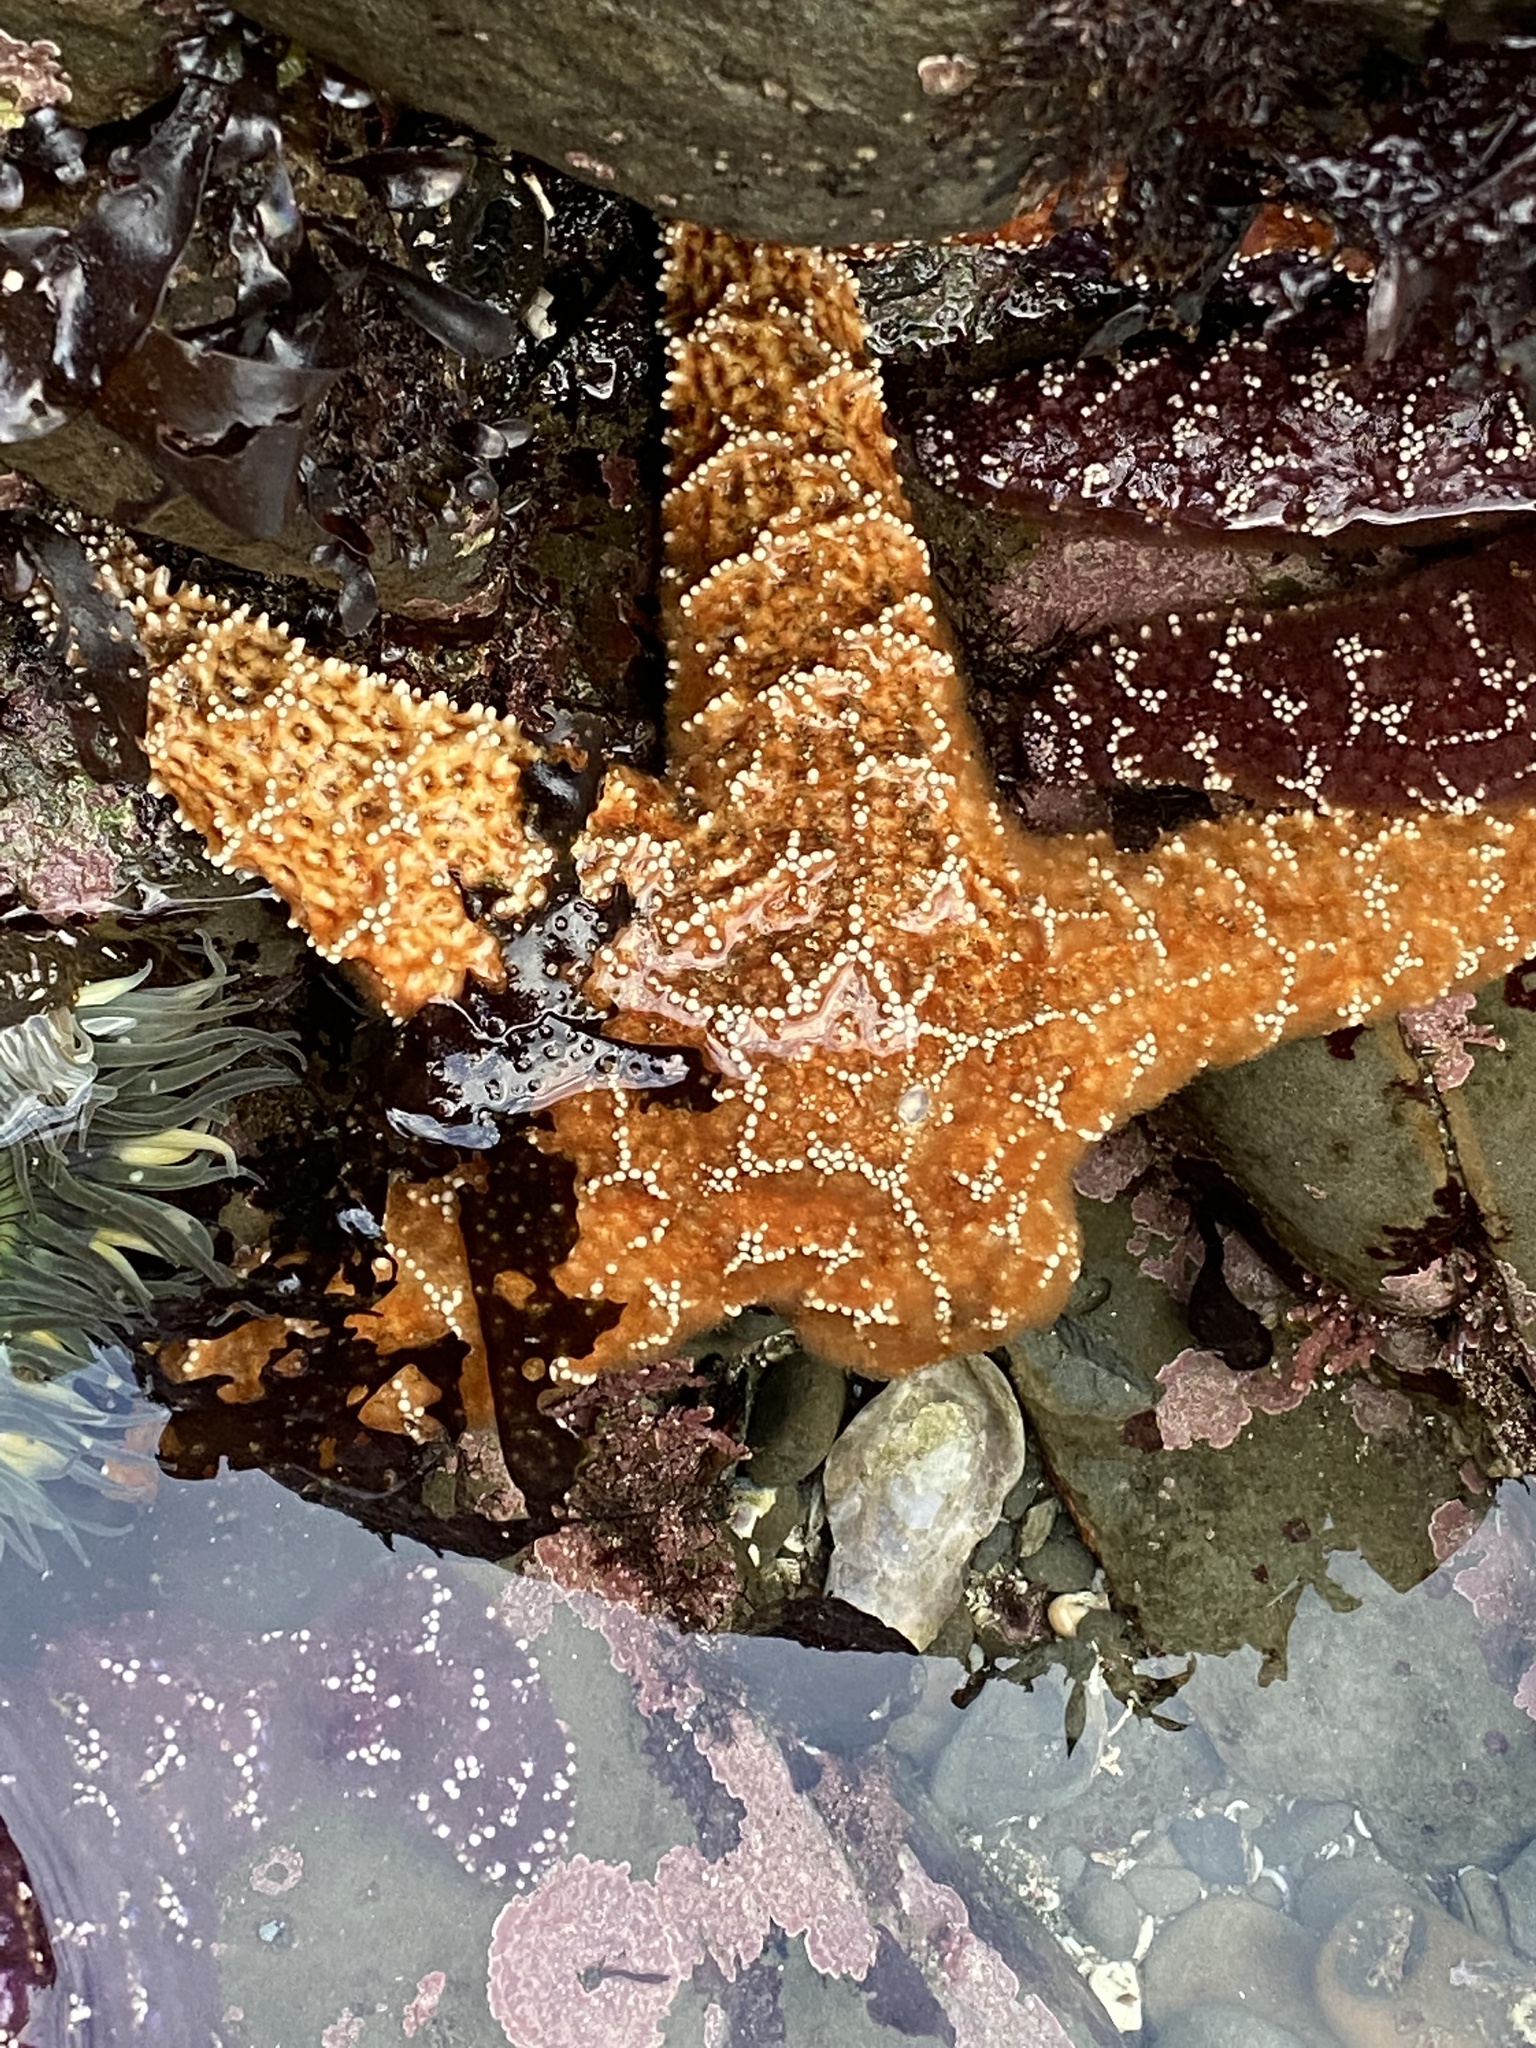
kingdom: Animalia
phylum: Echinodermata
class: Asteroidea
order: Forcipulatida
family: Asteriidae
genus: Pisaster
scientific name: Pisaster ochraceus
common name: Ochre stars
